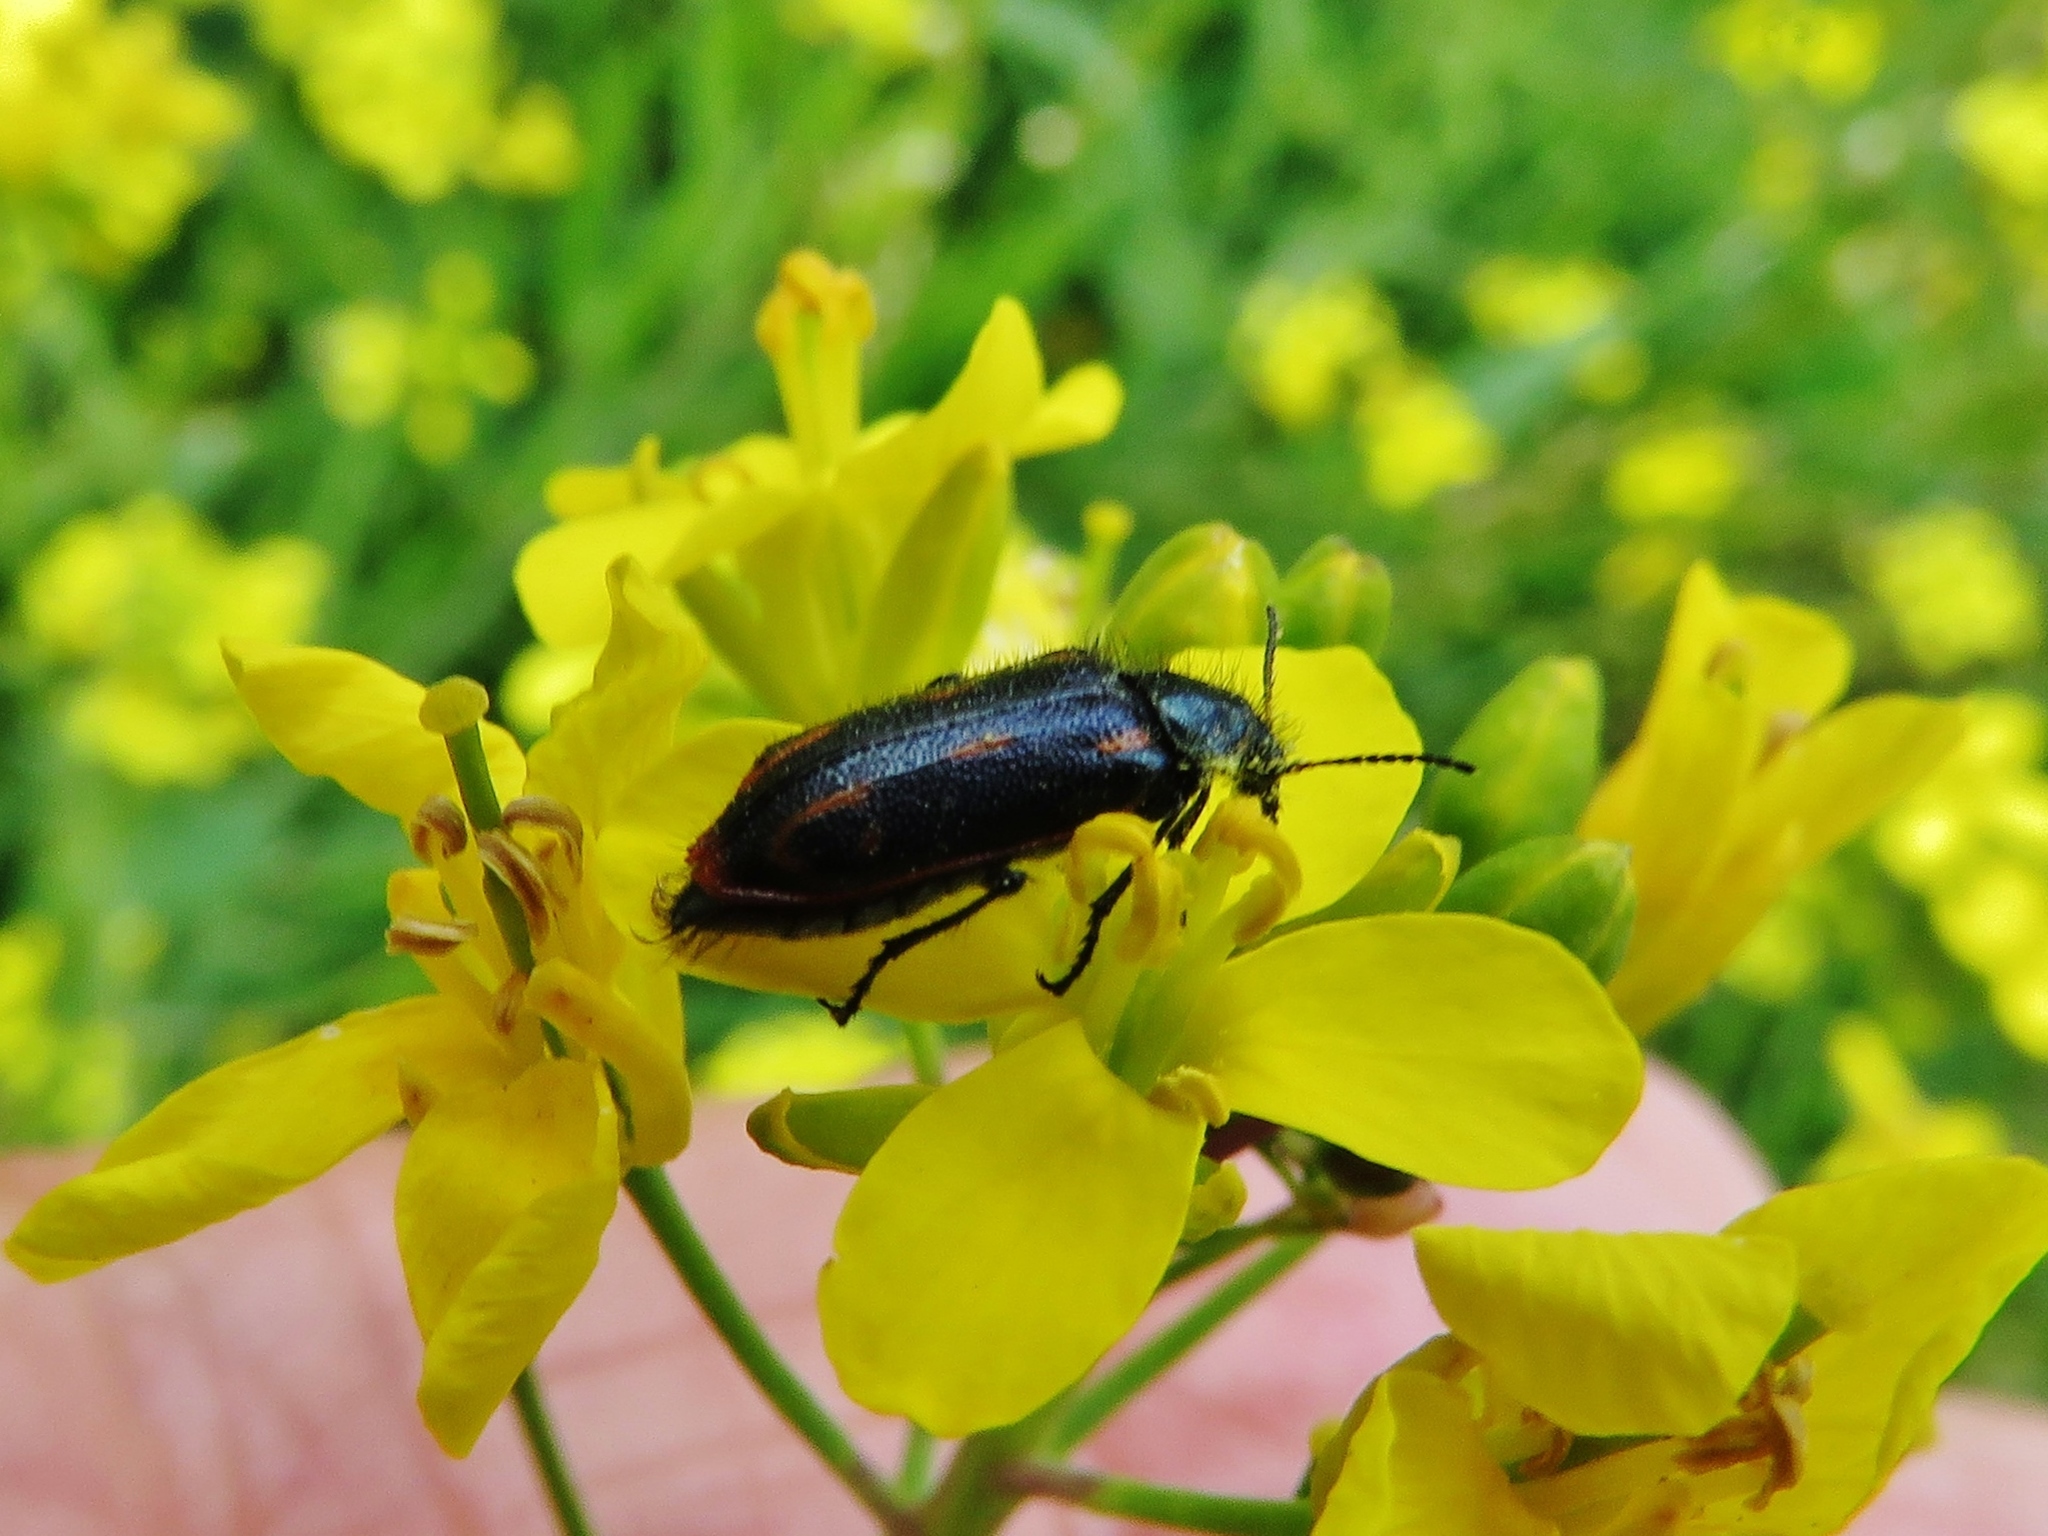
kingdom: Animalia
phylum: Arthropoda
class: Insecta
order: Coleoptera
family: Melyridae
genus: Astylus
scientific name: Astylus
